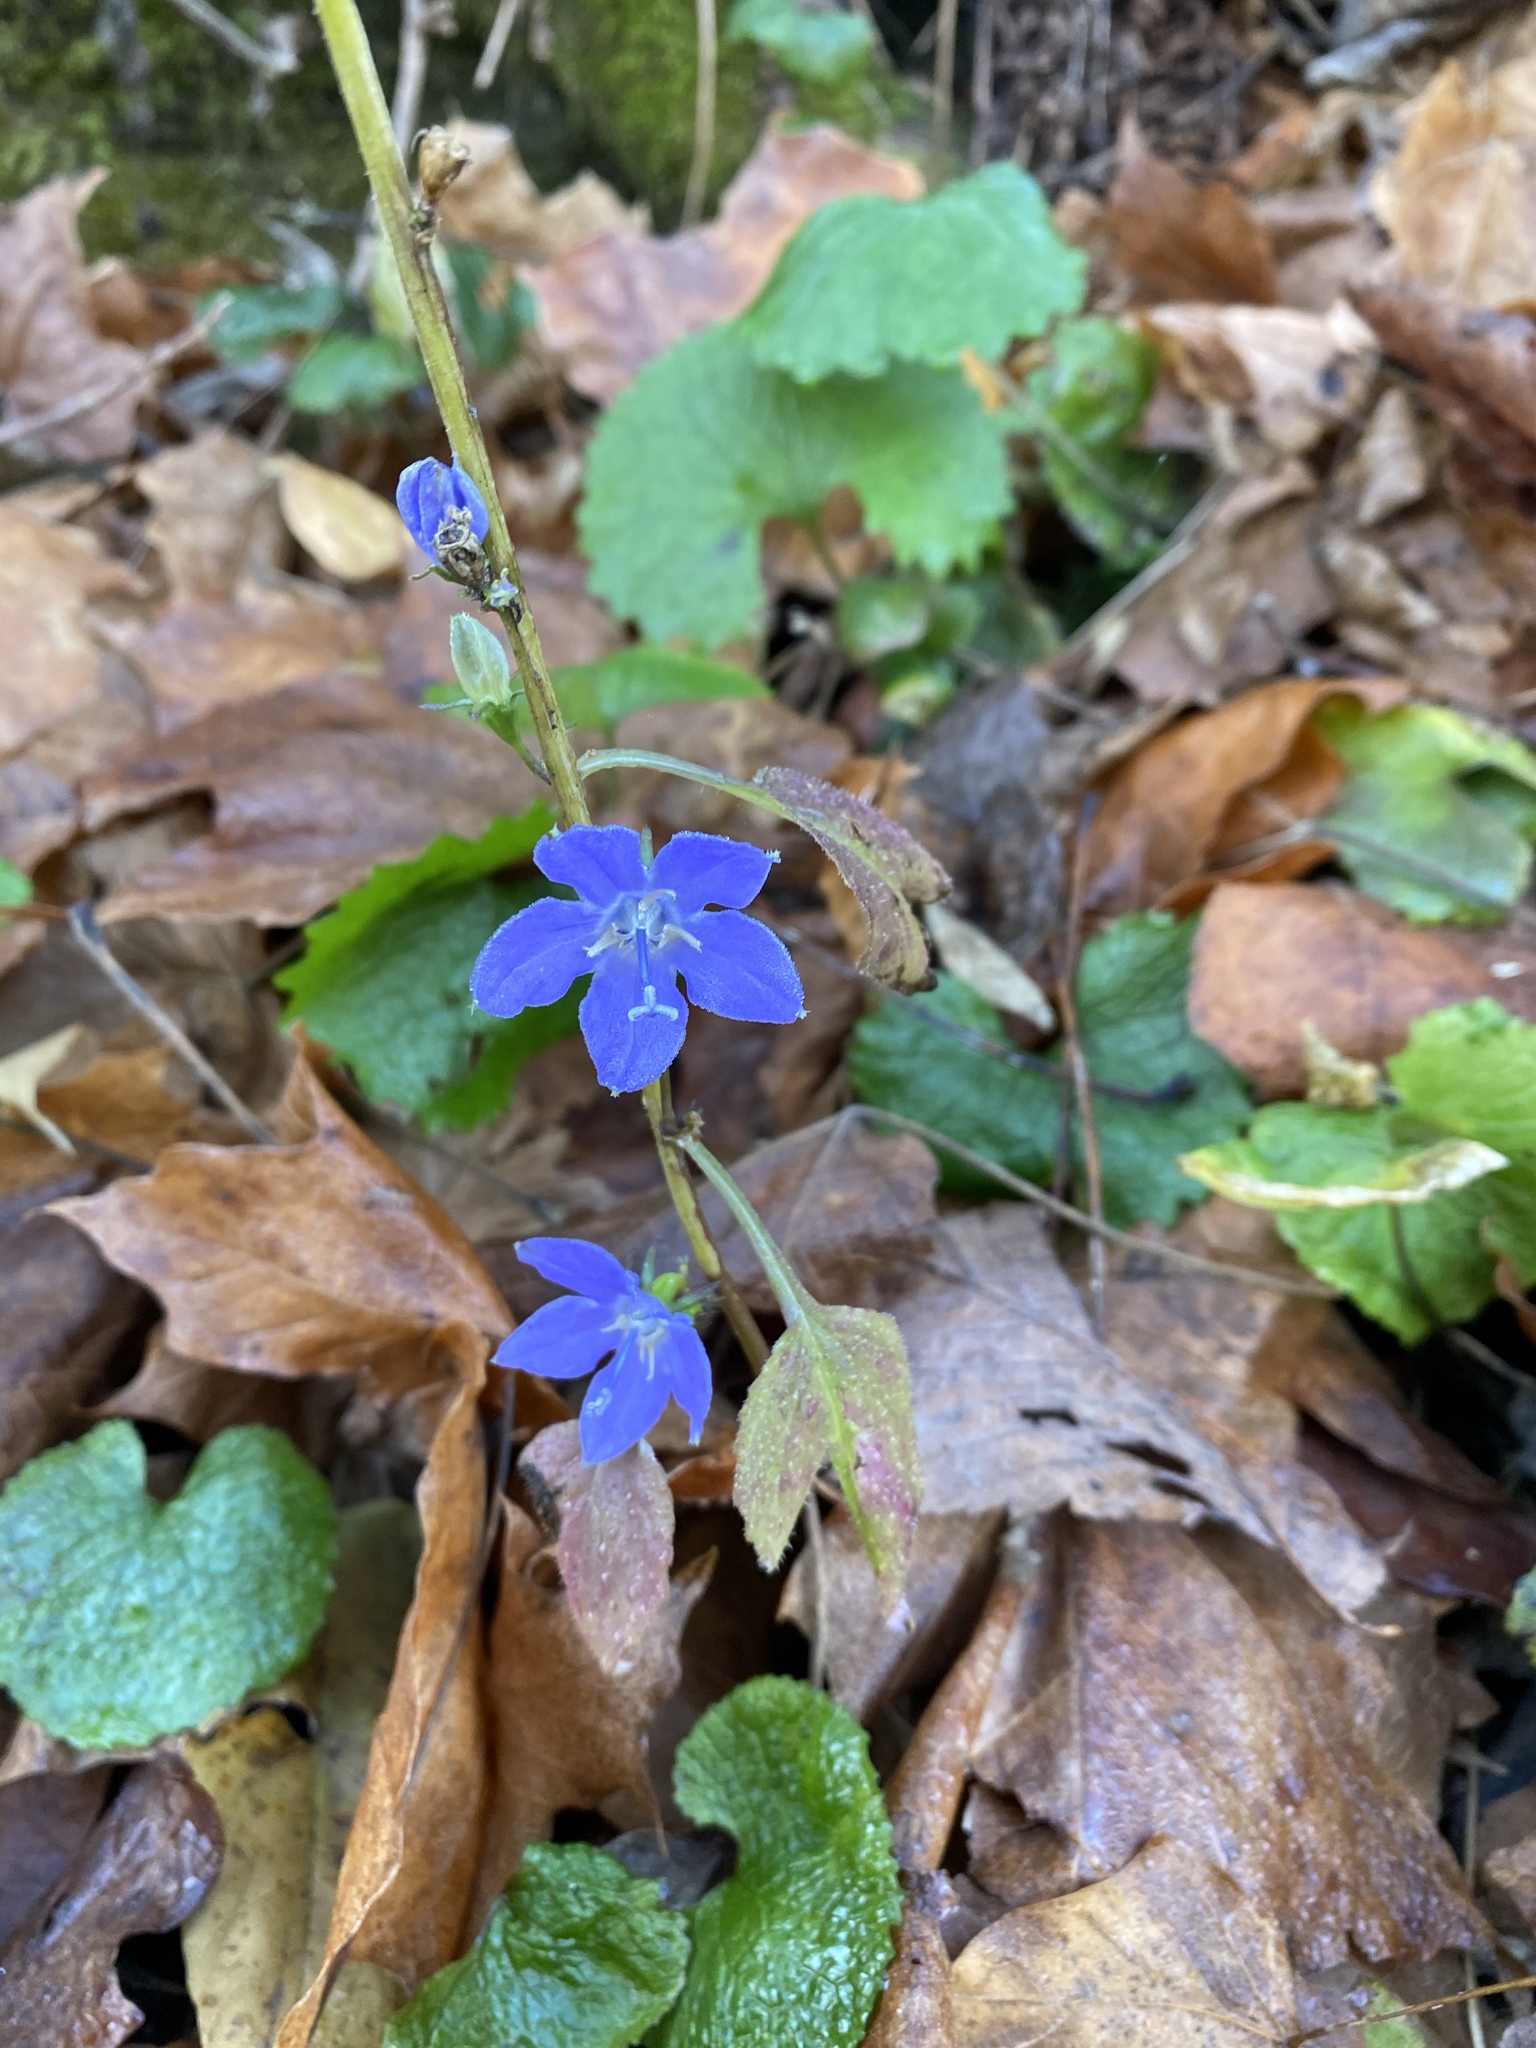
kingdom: Plantae
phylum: Tracheophyta
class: Magnoliopsida
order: Asterales
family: Campanulaceae
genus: Campanulastrum
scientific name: Campanulastrum americanum
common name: American bellflower
